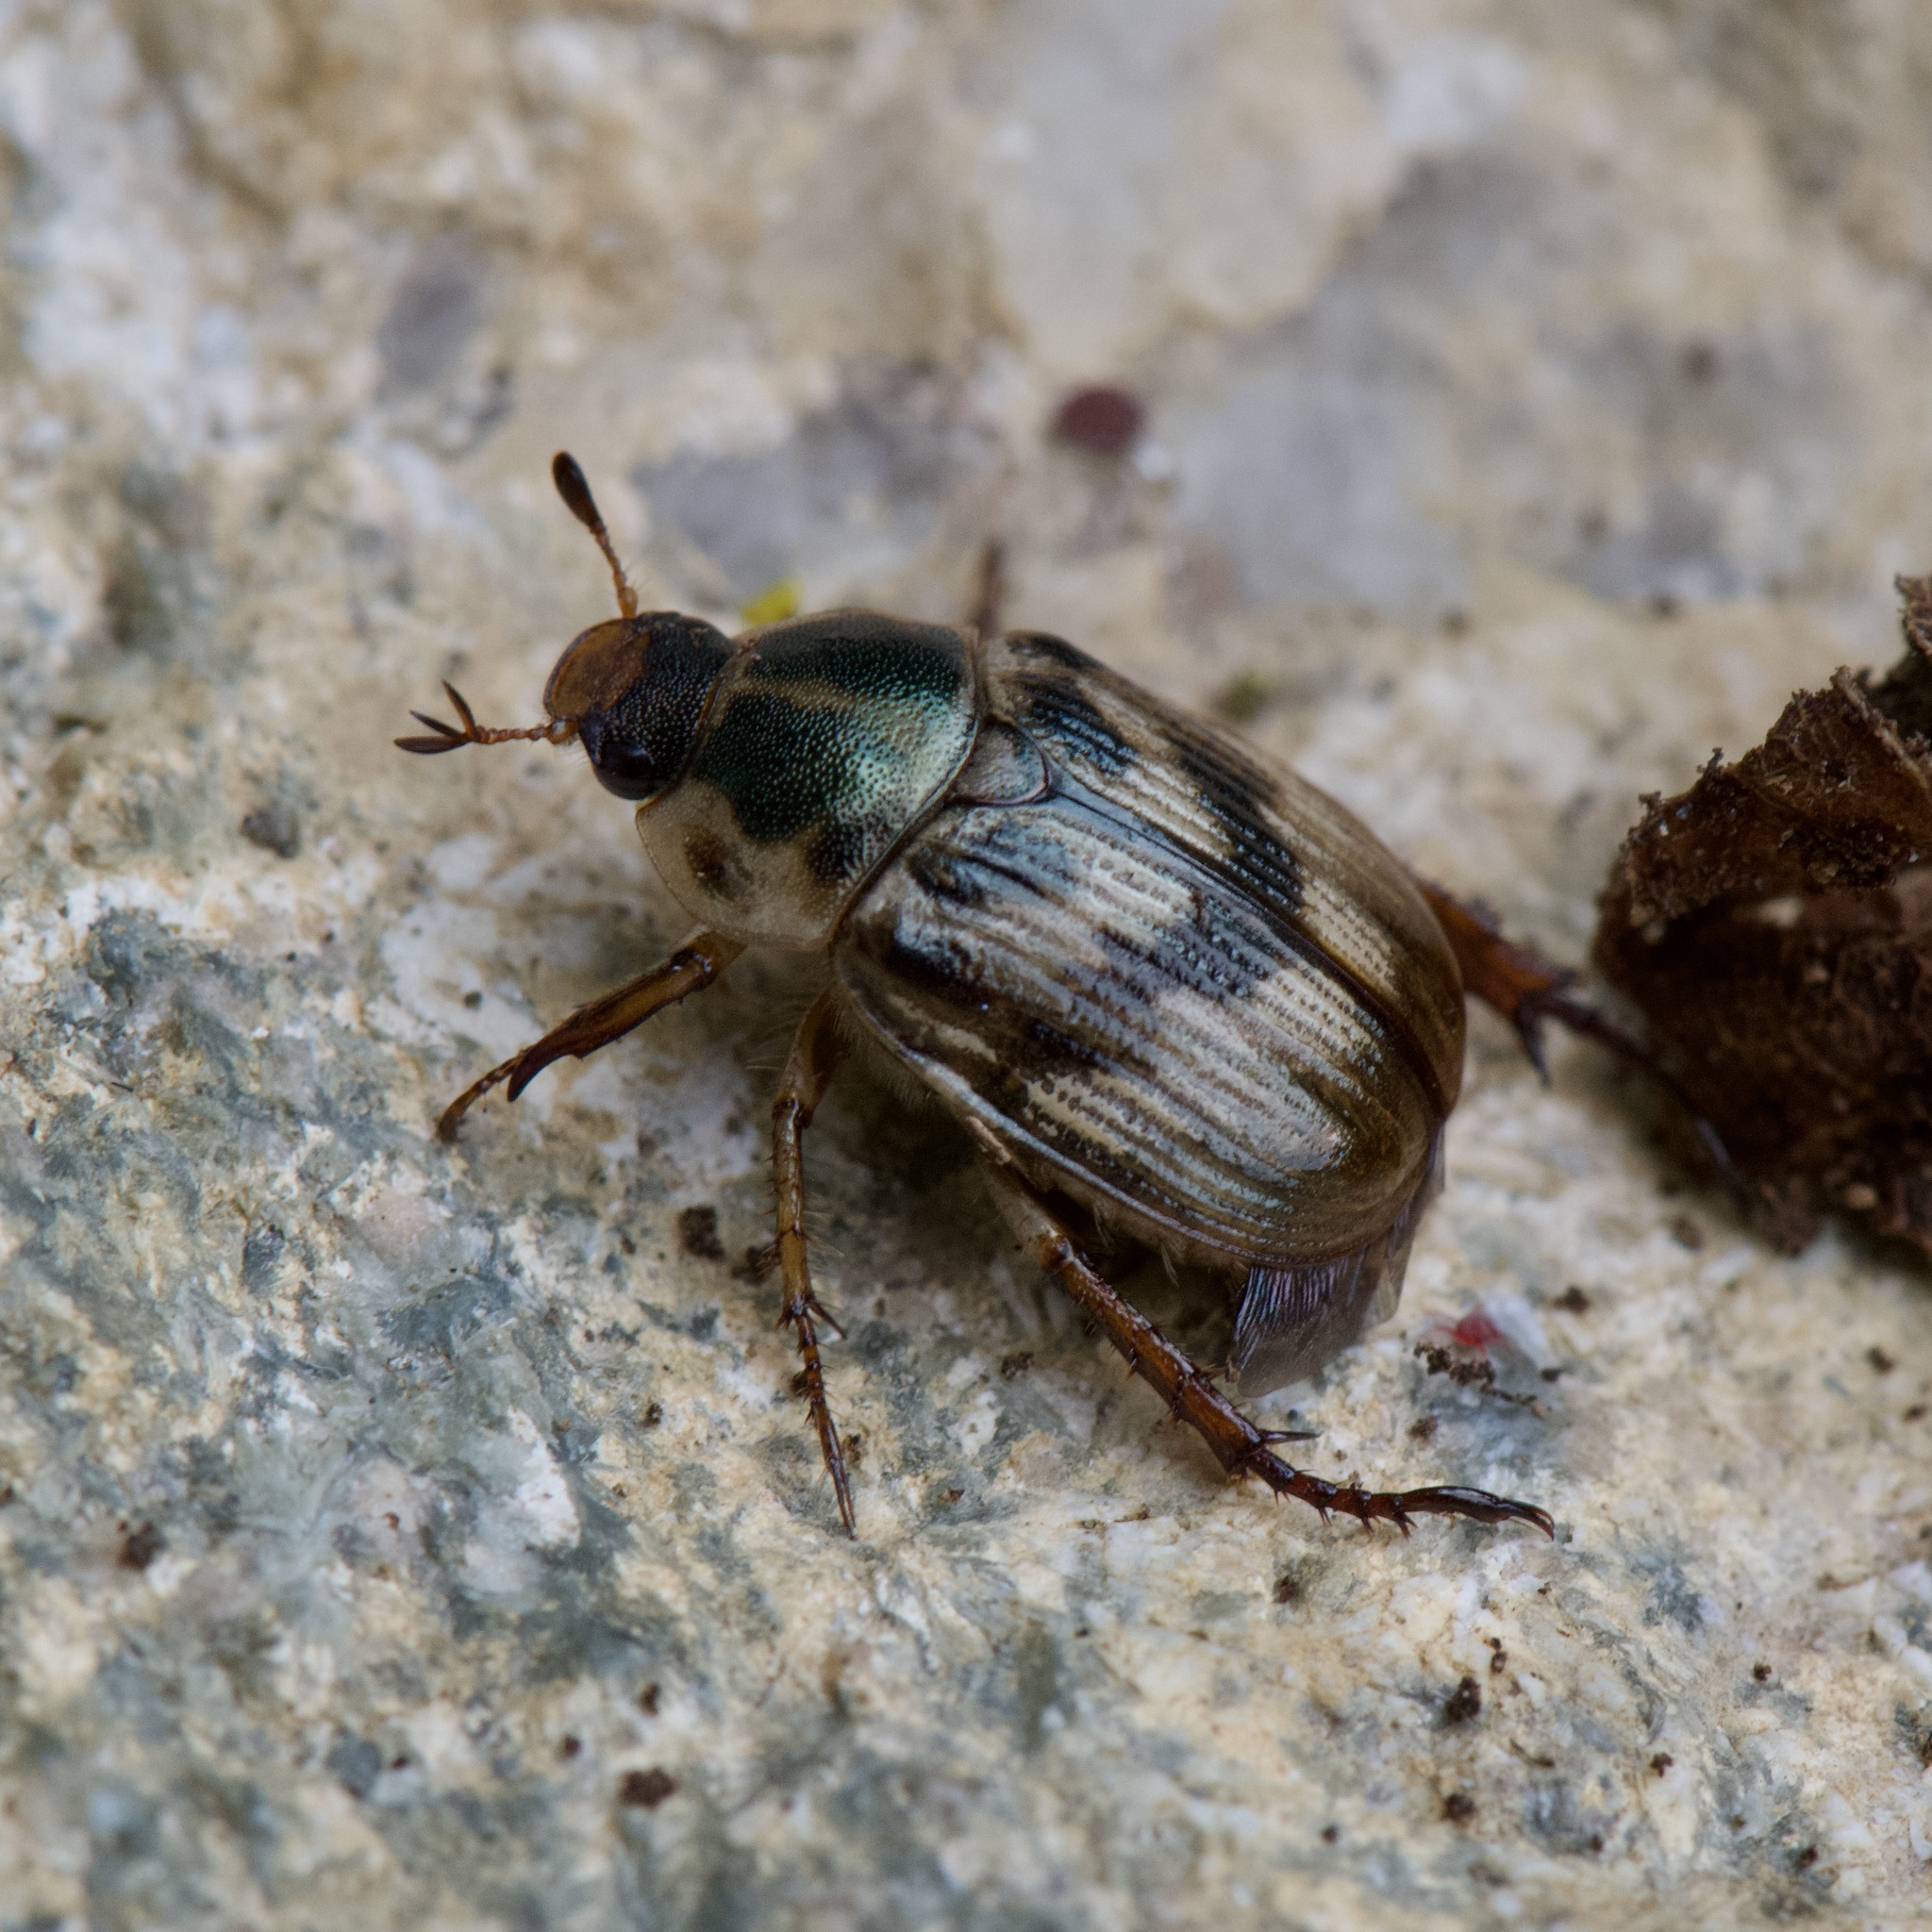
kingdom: Animalia
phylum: Arthropoda
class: Insecta
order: Coleoptera
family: Scarabaeidae
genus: Exomala
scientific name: Exomala orientalis
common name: Oriental beetle
